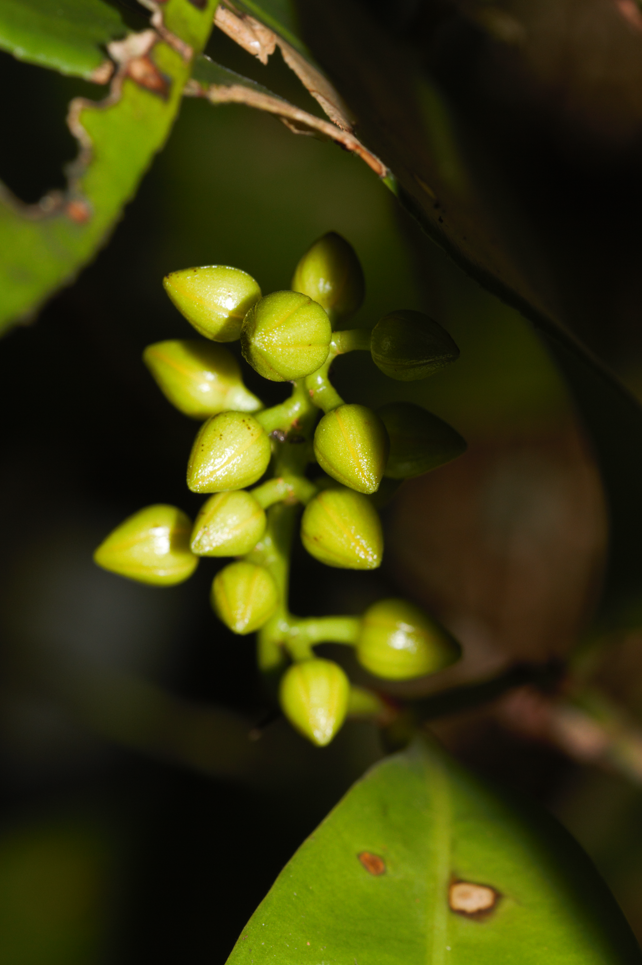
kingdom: Plantae
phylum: Tracheophyta
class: Magnoliopsida
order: Malpighiales
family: Ochnaceae
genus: Ouratea
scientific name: Ouratea
